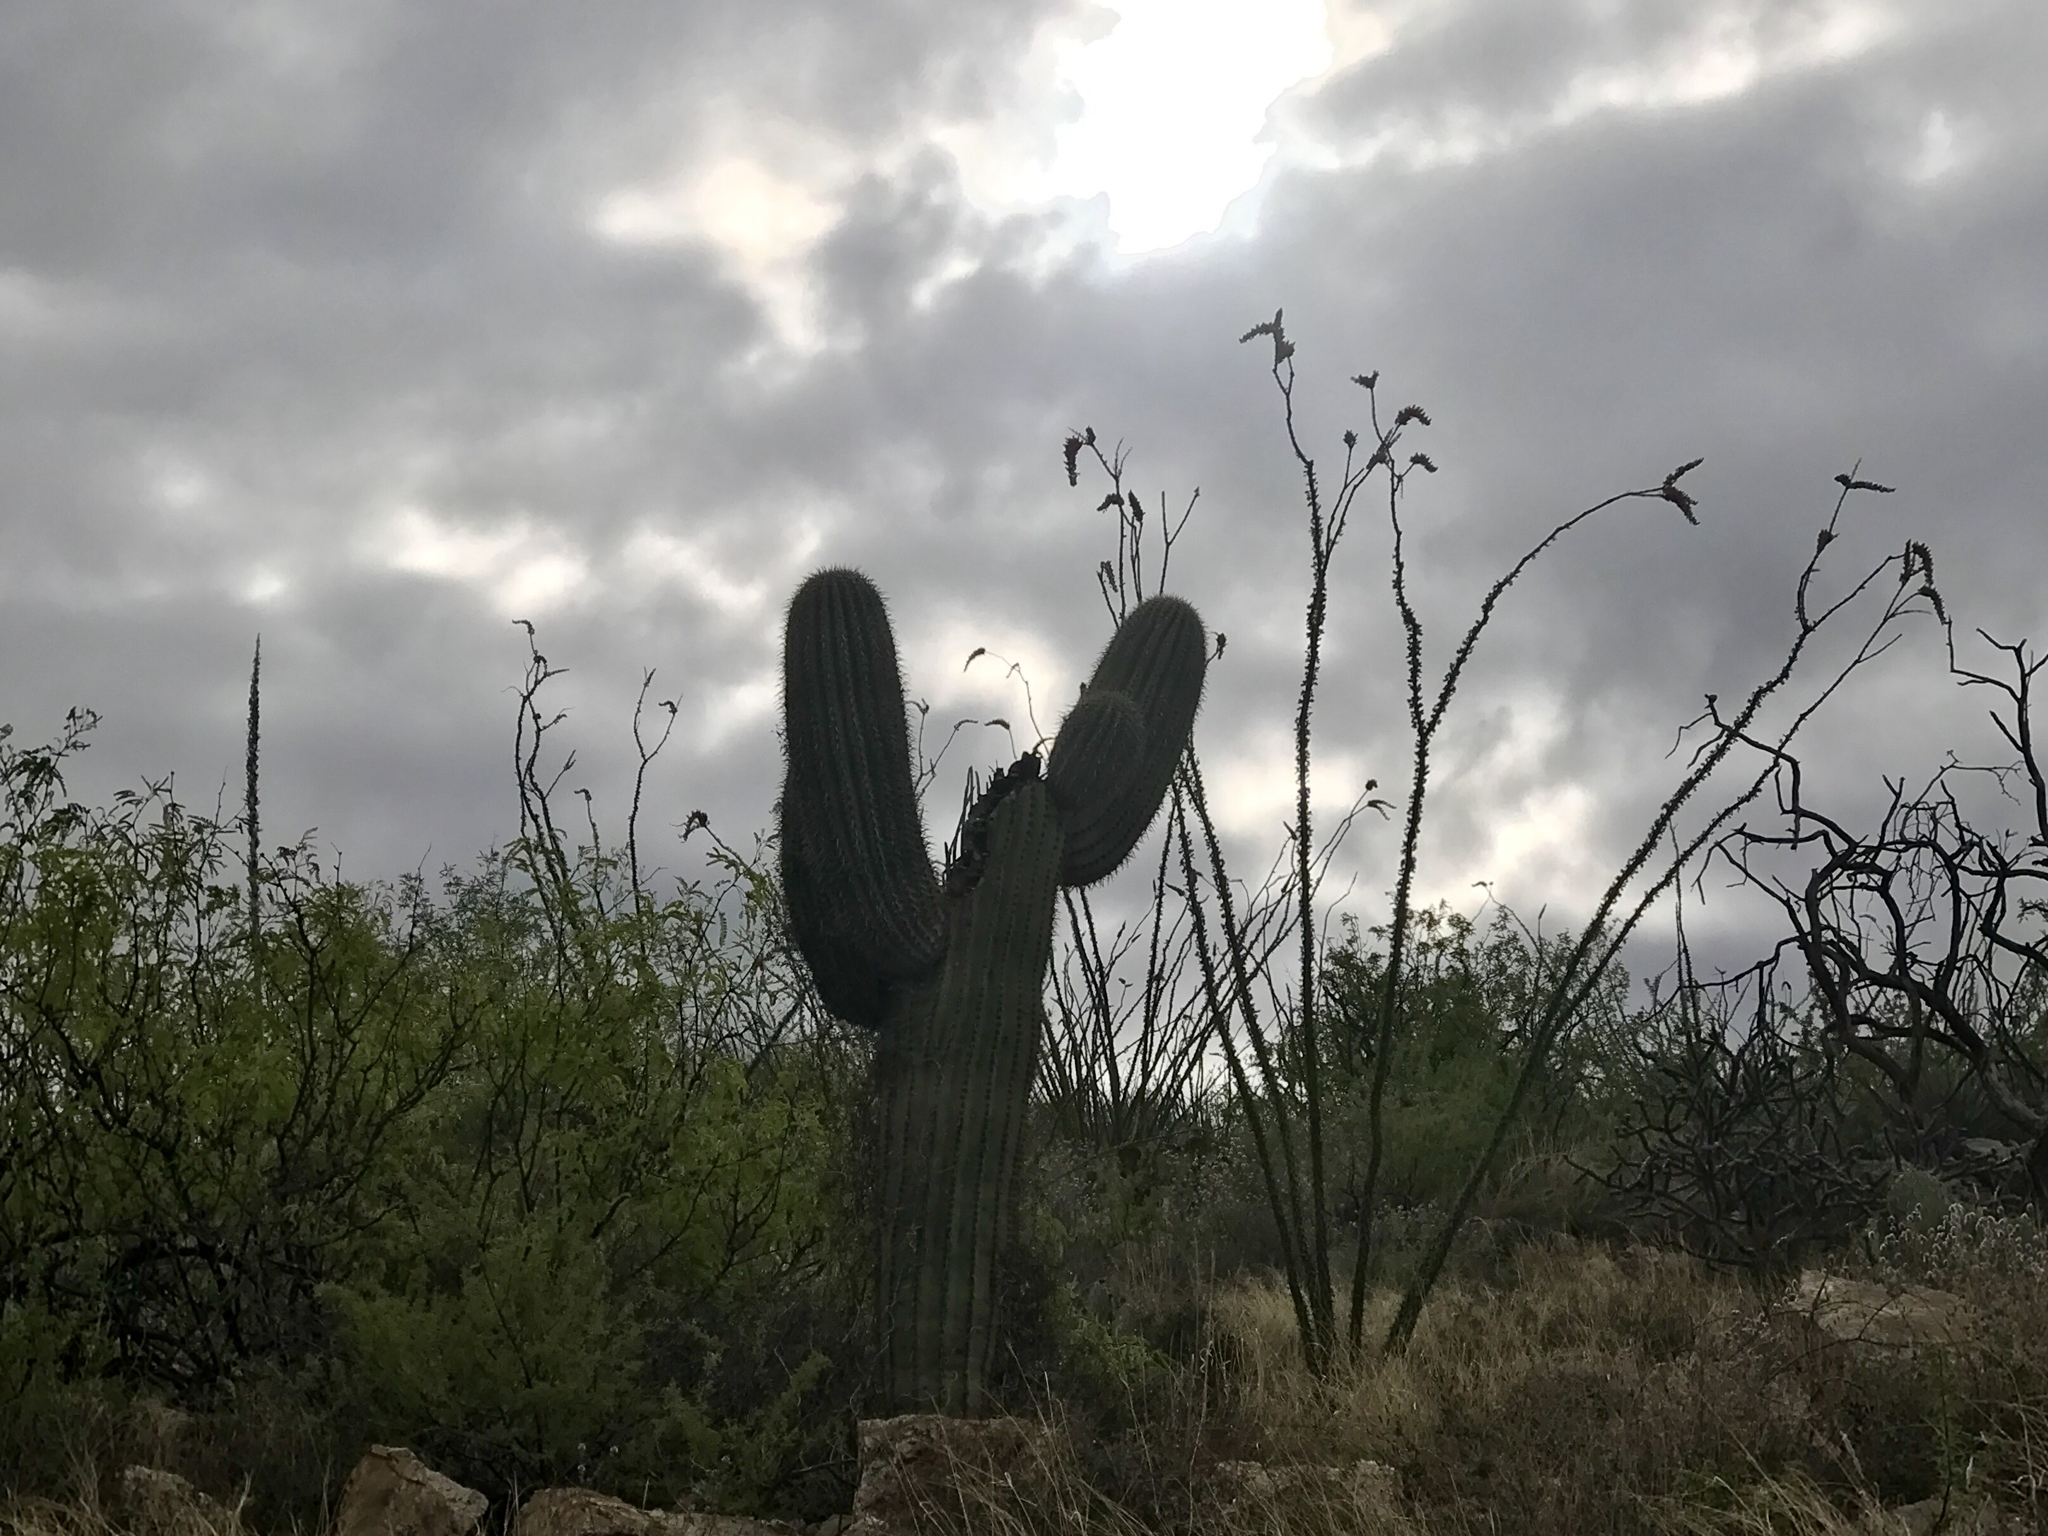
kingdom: Plantae
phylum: Tracheophyta
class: Magnoliopsida
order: Caryophyllales
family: Cactaceae
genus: Carnegiea
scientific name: Carnegiea gigantea
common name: Saguaro
